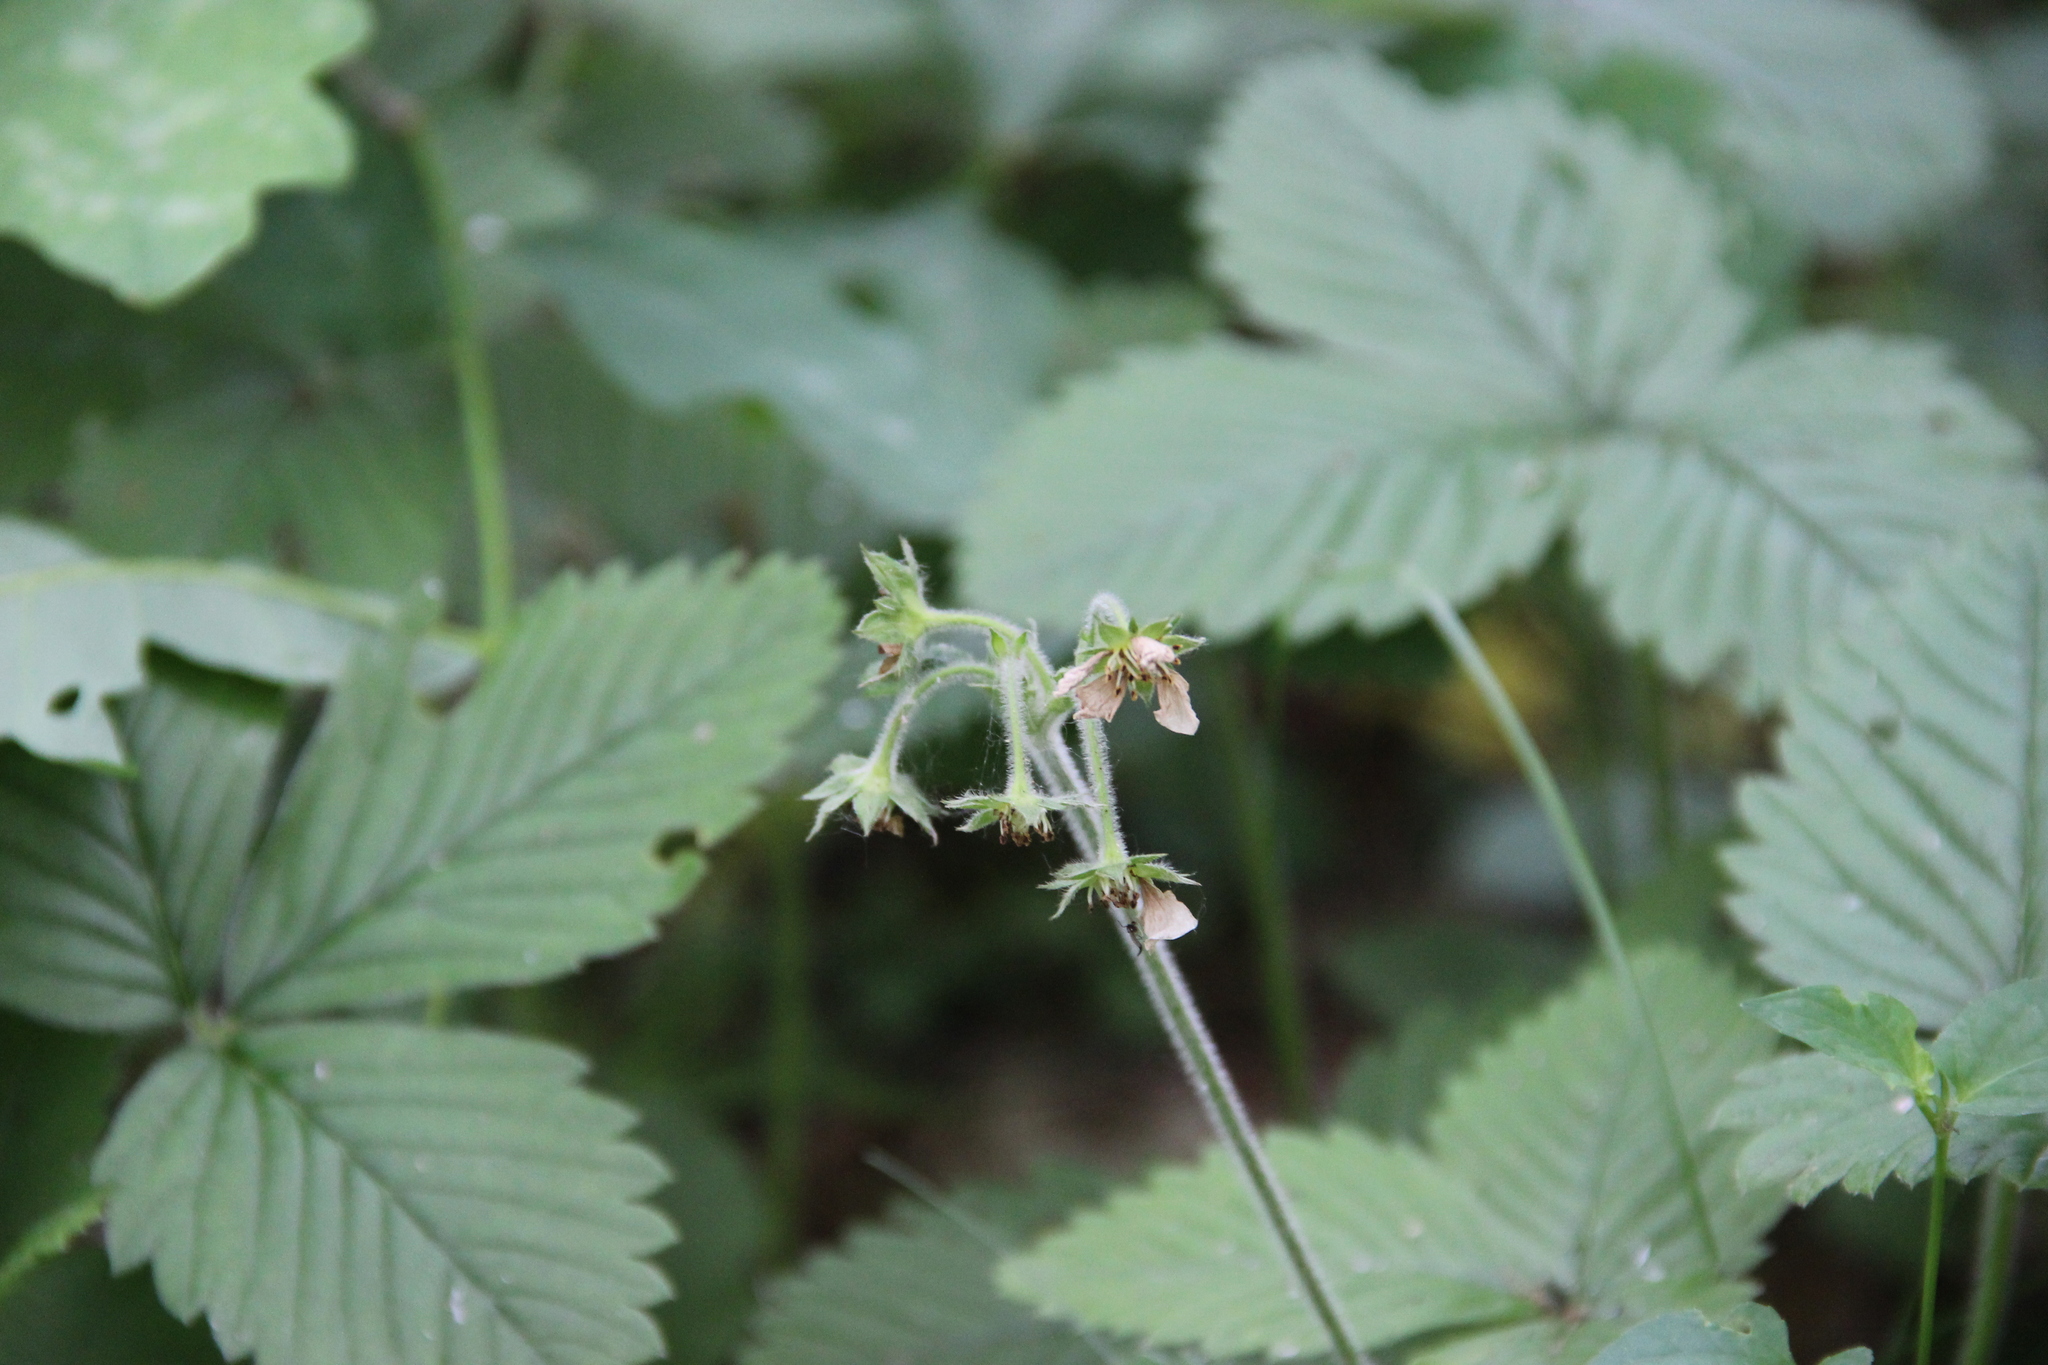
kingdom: Plantae
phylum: Tracheophyta
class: Magnoliopsida
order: Rosales
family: Rosaceae
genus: Fragaria
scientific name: Fragaria moschata
